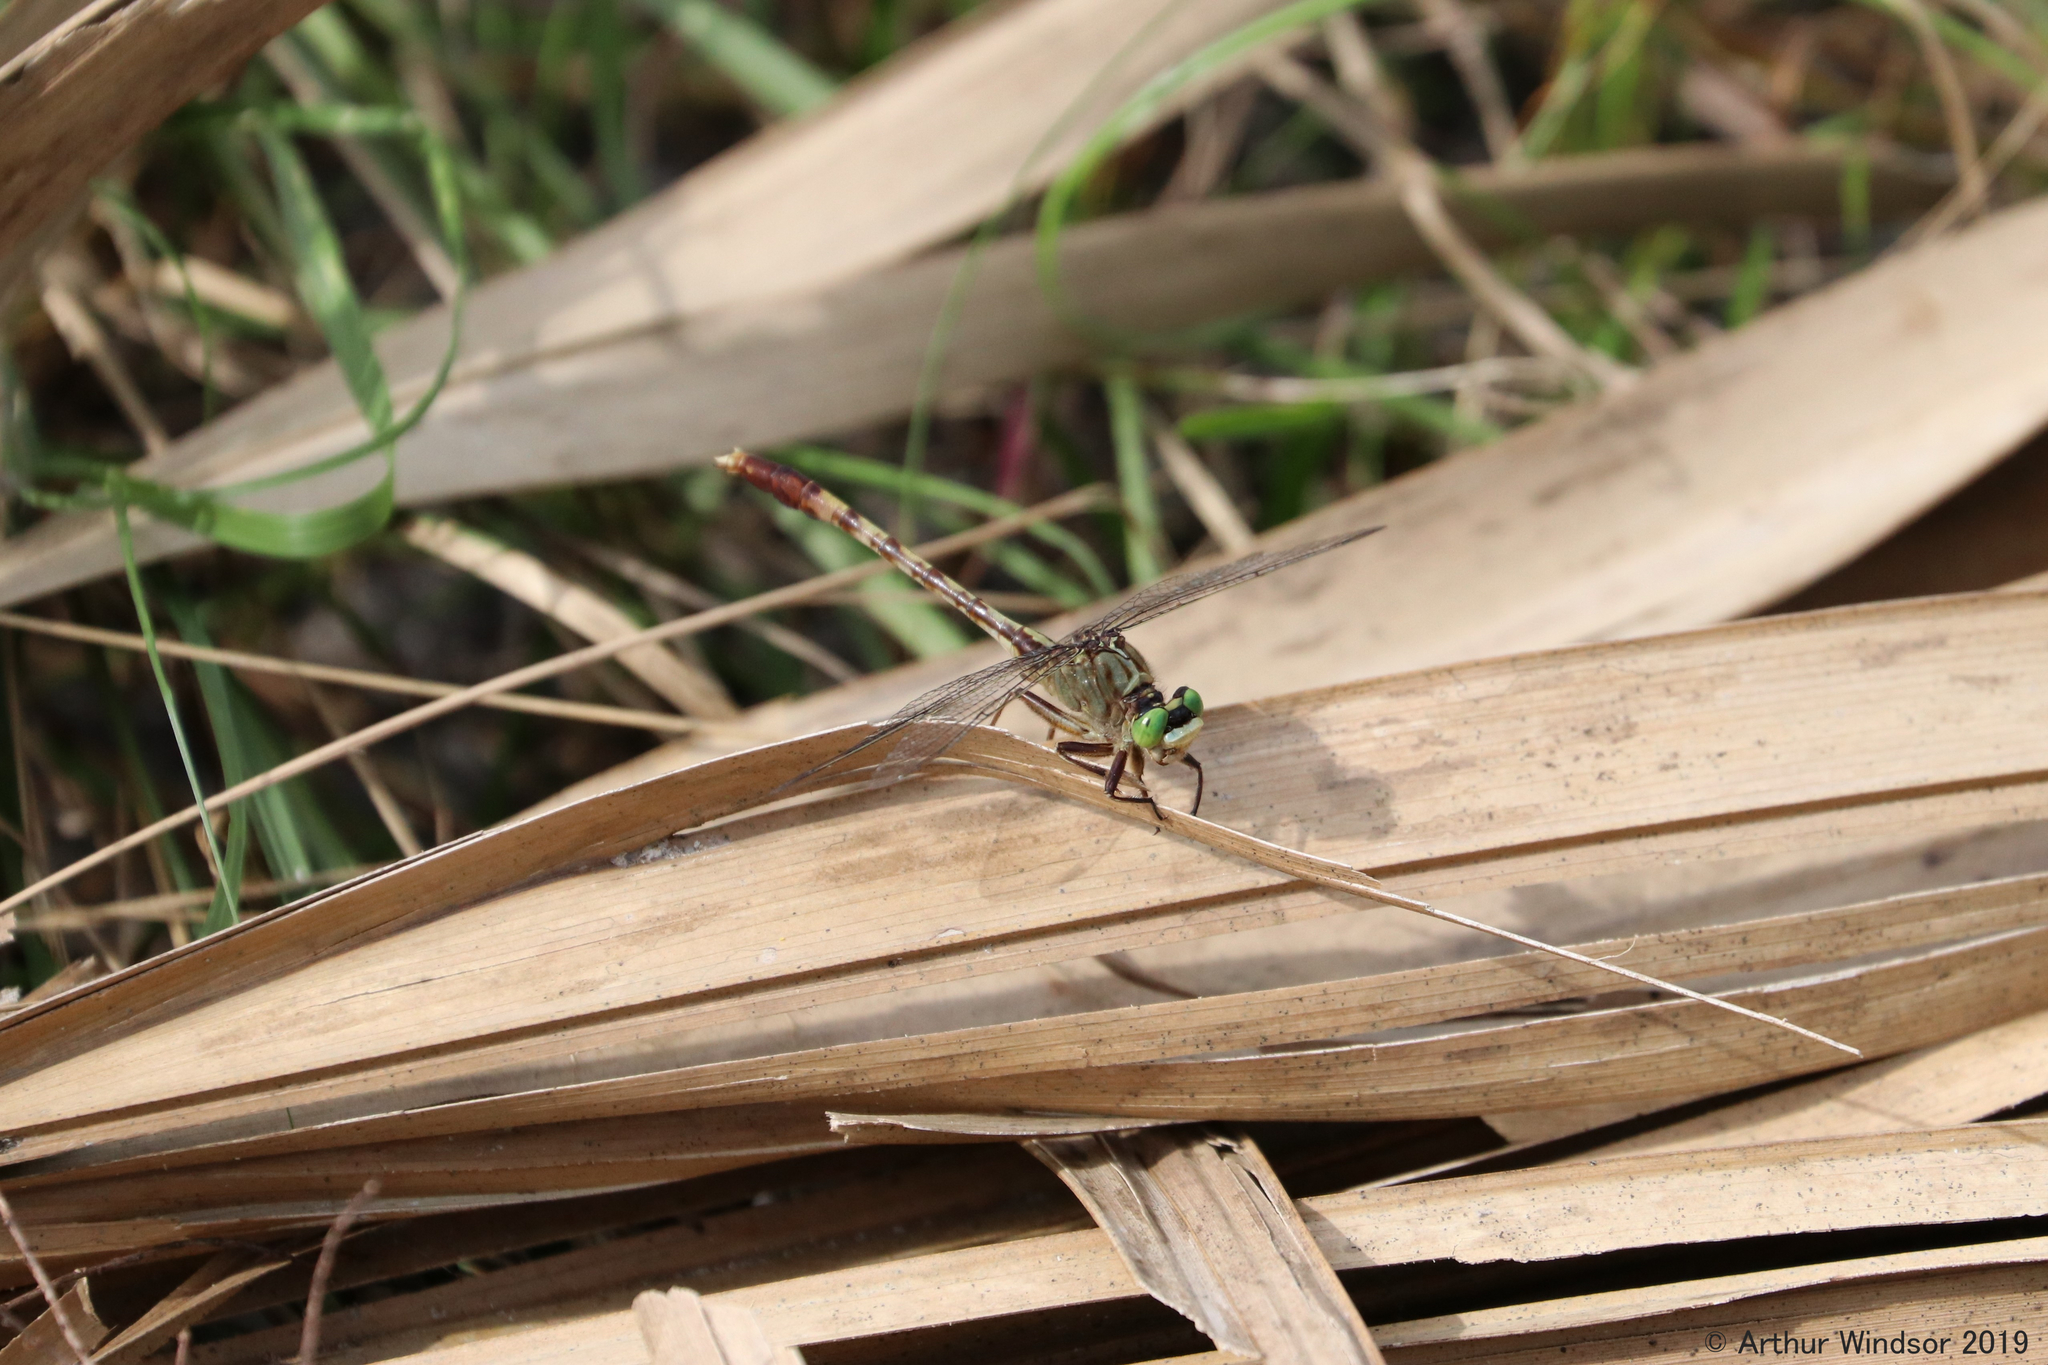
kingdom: Animalia
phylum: Arthropoda
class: Insecta
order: Odonata
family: Gomphidae
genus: Arigomphus
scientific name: Arigomphus pallidus
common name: Gray-green clubtail
